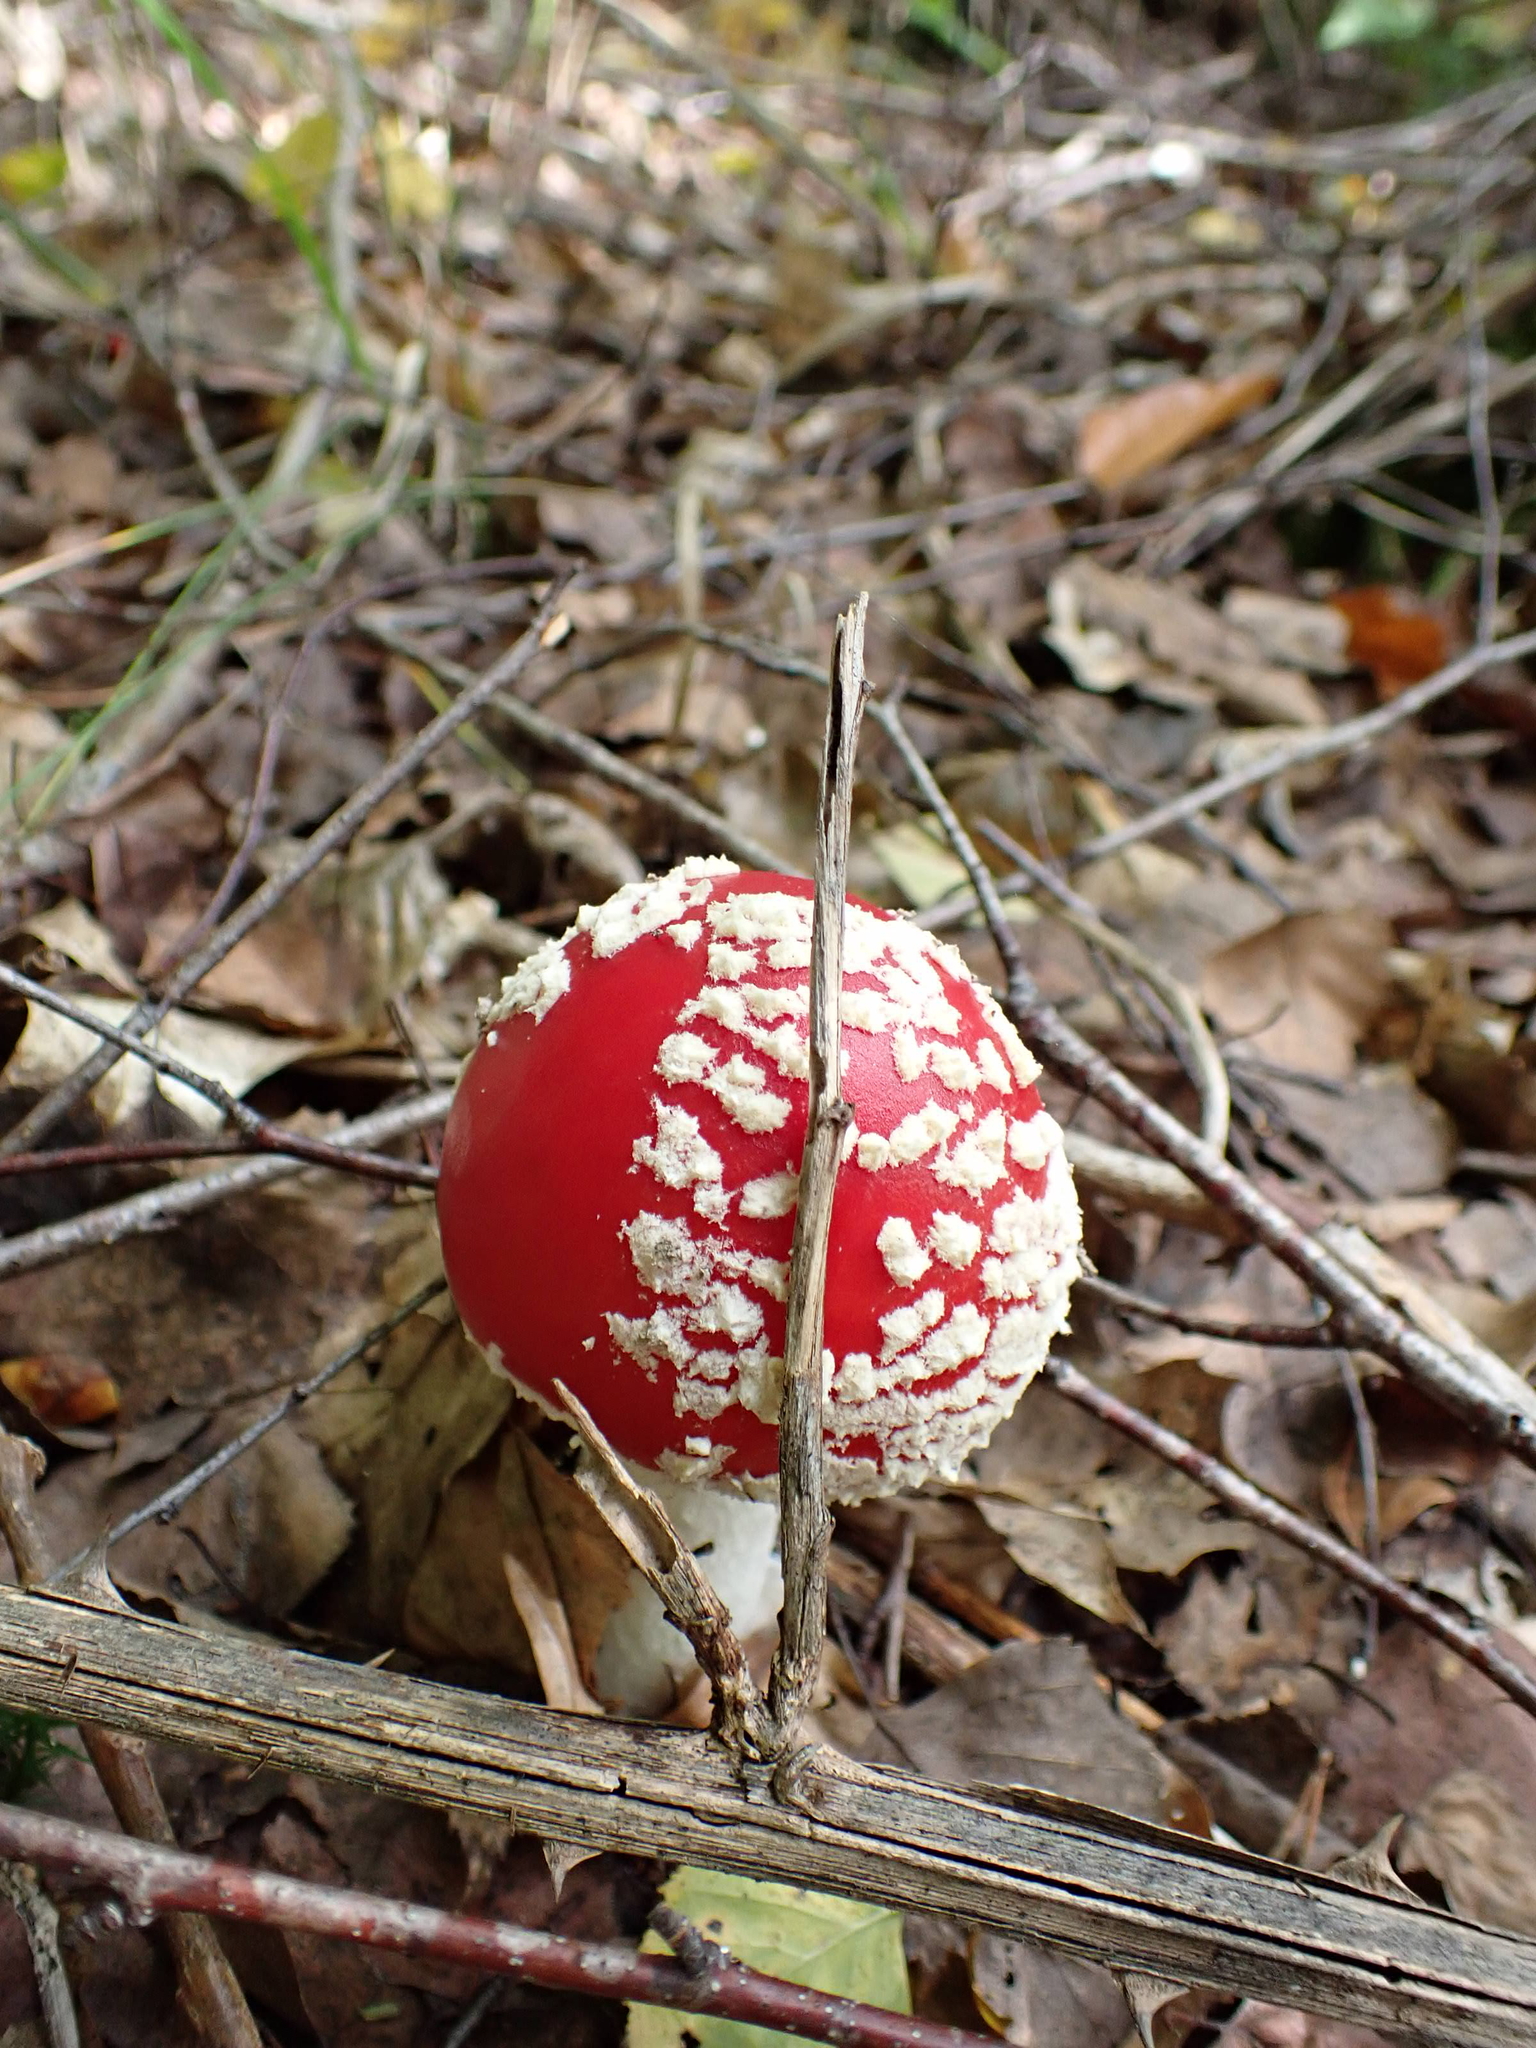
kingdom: Fungi
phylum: Basidiomycota
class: Agaricomycetes
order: Agaricales
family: Amanitaceae
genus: Amanita
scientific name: Amanita muscaria
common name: Fly agaric
